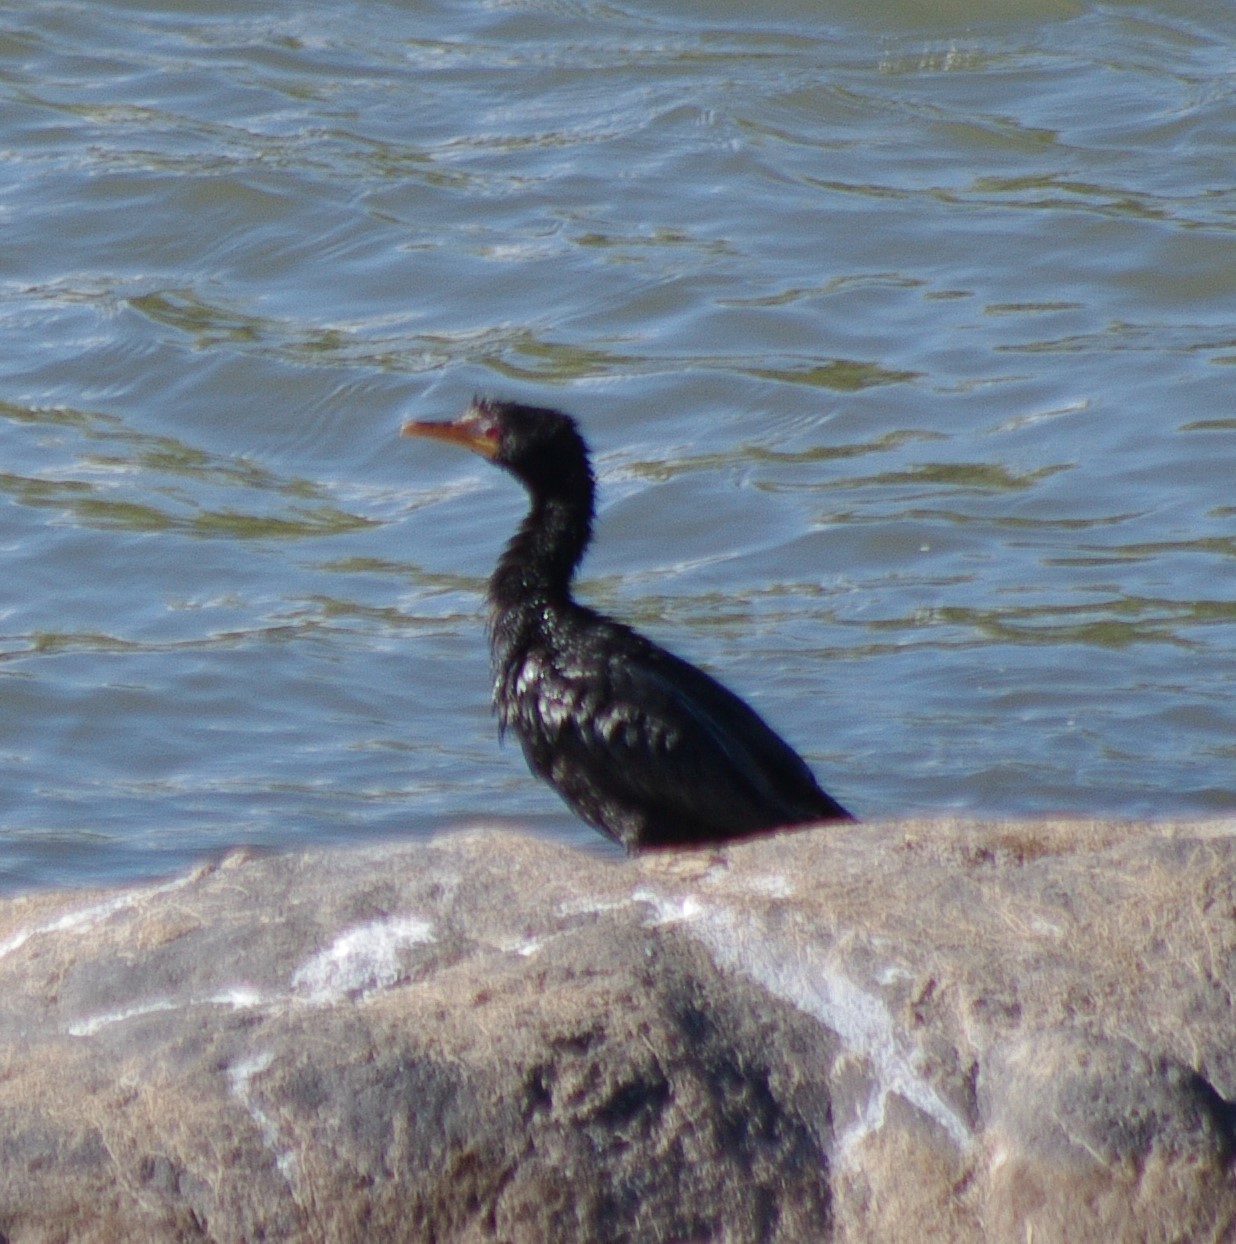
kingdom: Animalia
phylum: Chordata
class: Aves
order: Suliformes
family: Phalacrocoracidae
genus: Microcarbo
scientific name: Microcarbo africanus
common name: Long-tailed cormorant
